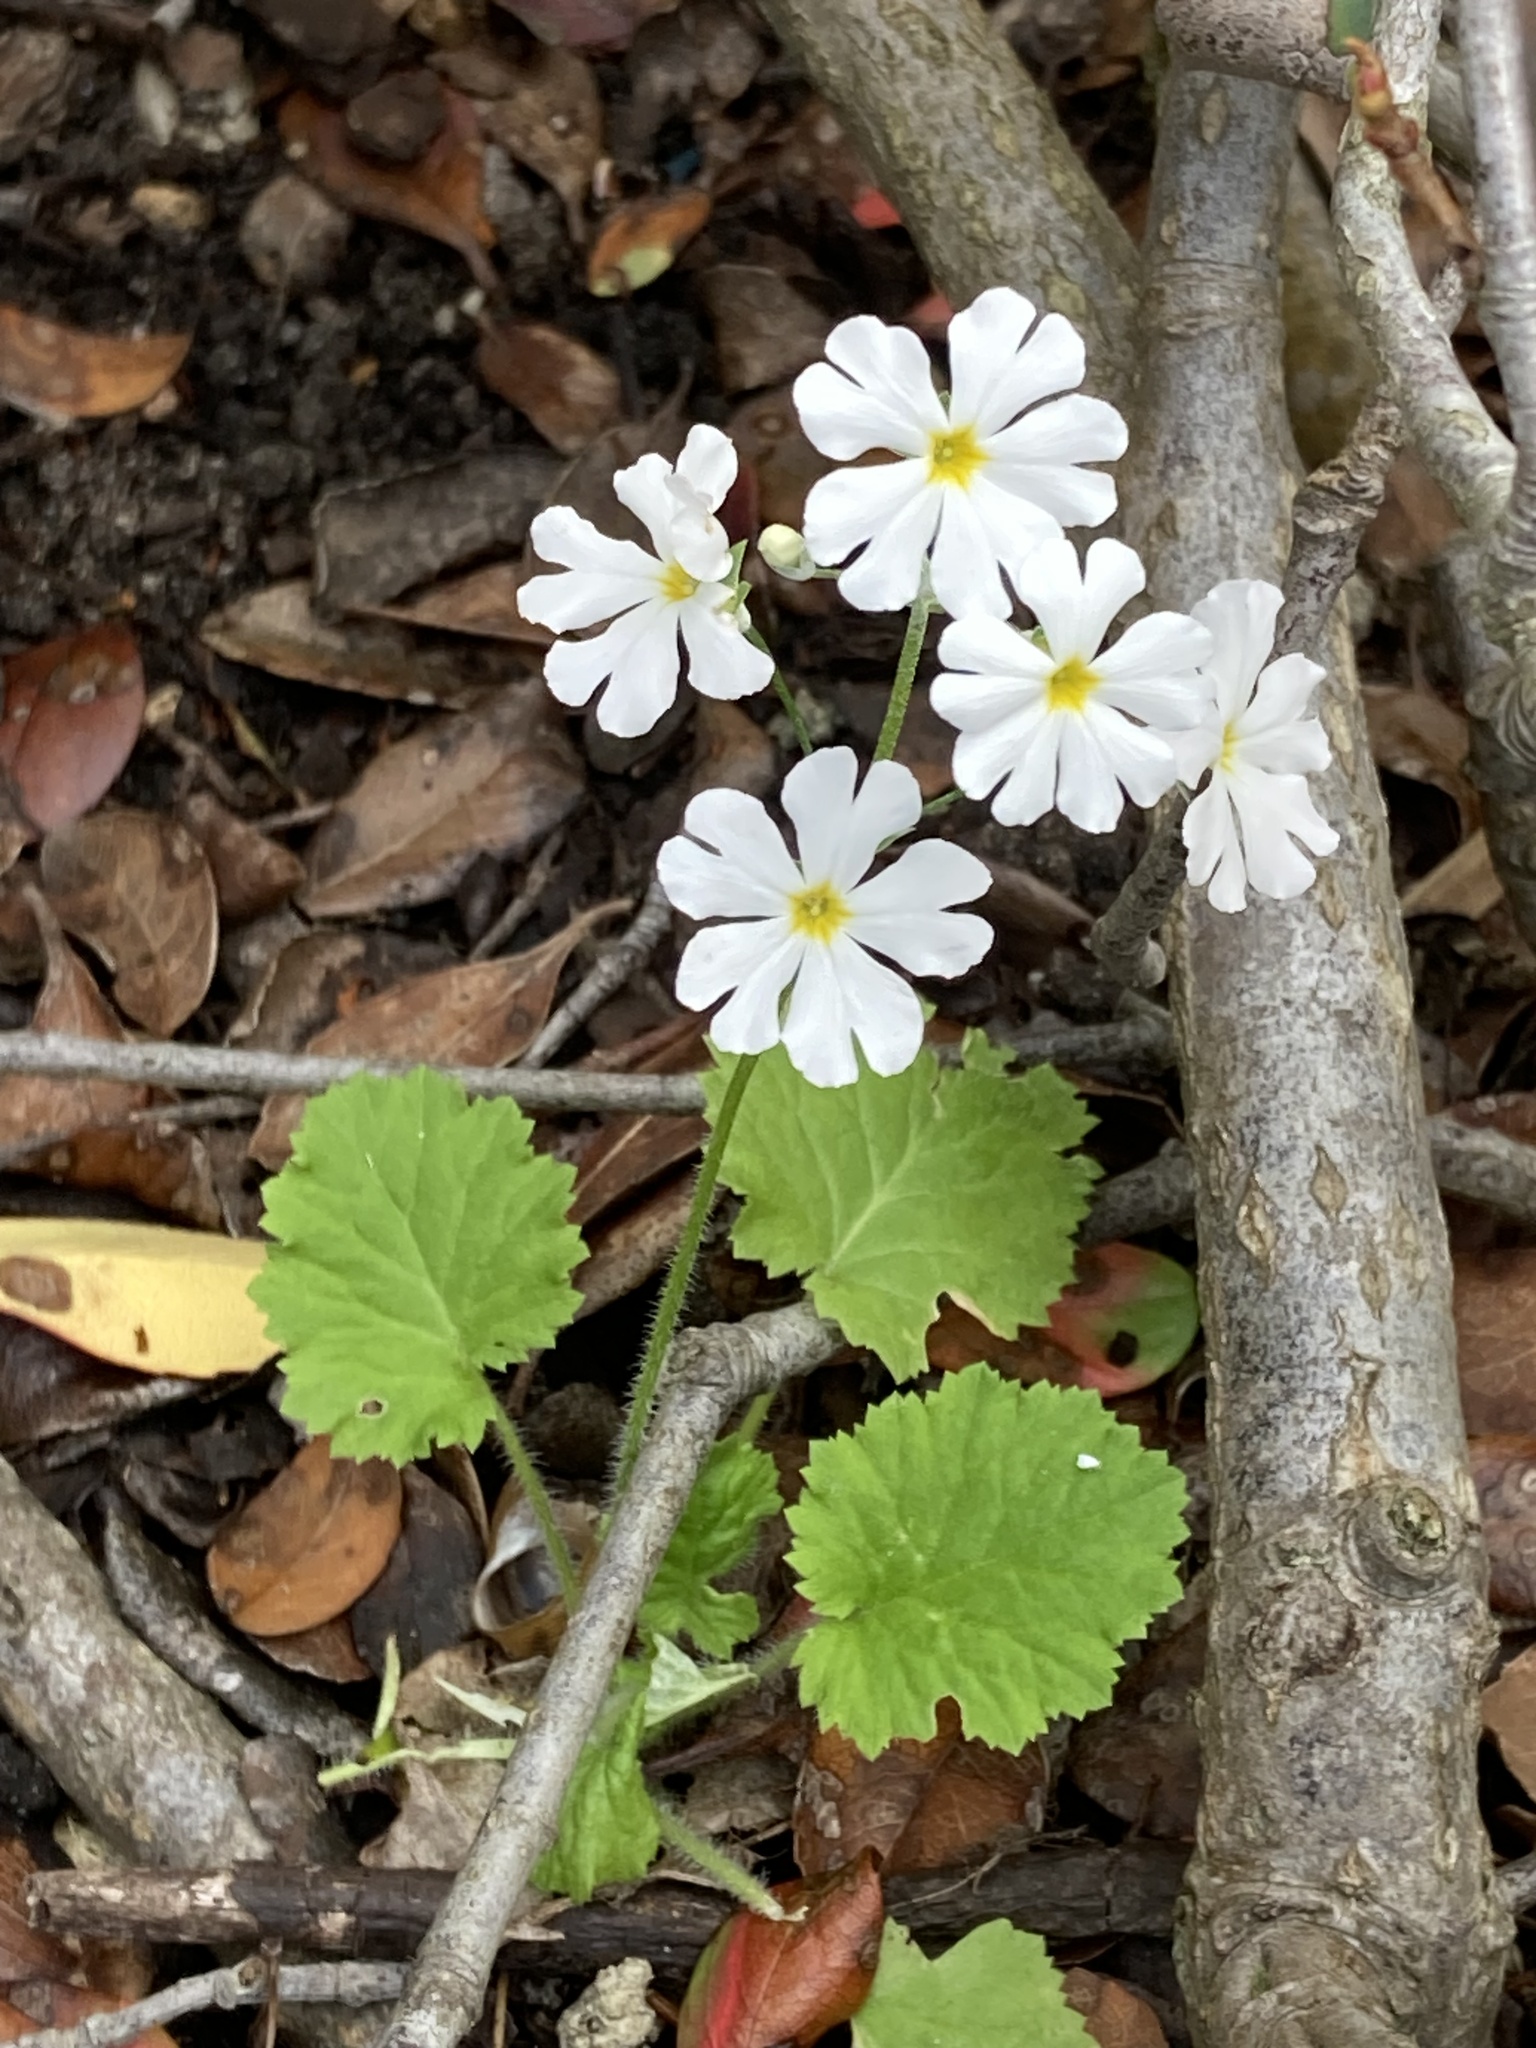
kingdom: Plantae
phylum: Tracheophyta
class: Magnoliopsida
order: Ericales
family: Primulaceae
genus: Primula
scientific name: Primula malacoides
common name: Baby primrose
